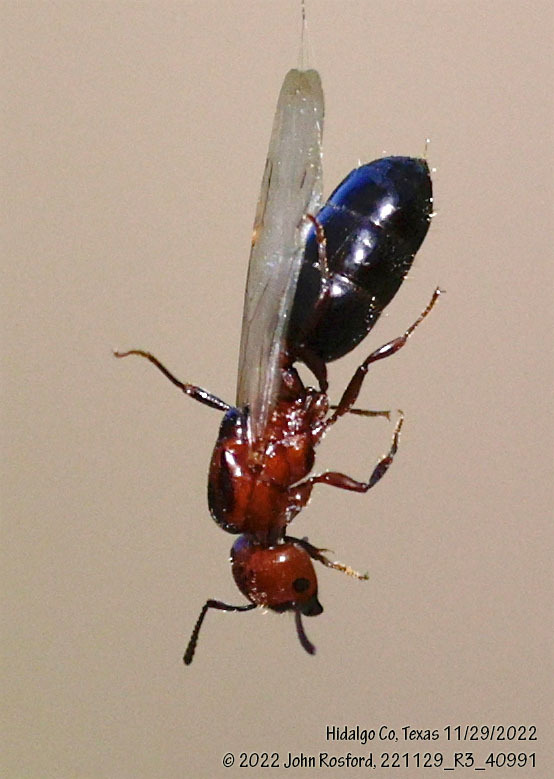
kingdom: Animalia
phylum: Arthropoda
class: Insecta
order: Hymenoptera
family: Formicidae
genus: Crematogaster
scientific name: Crematogaster laeviuscula
